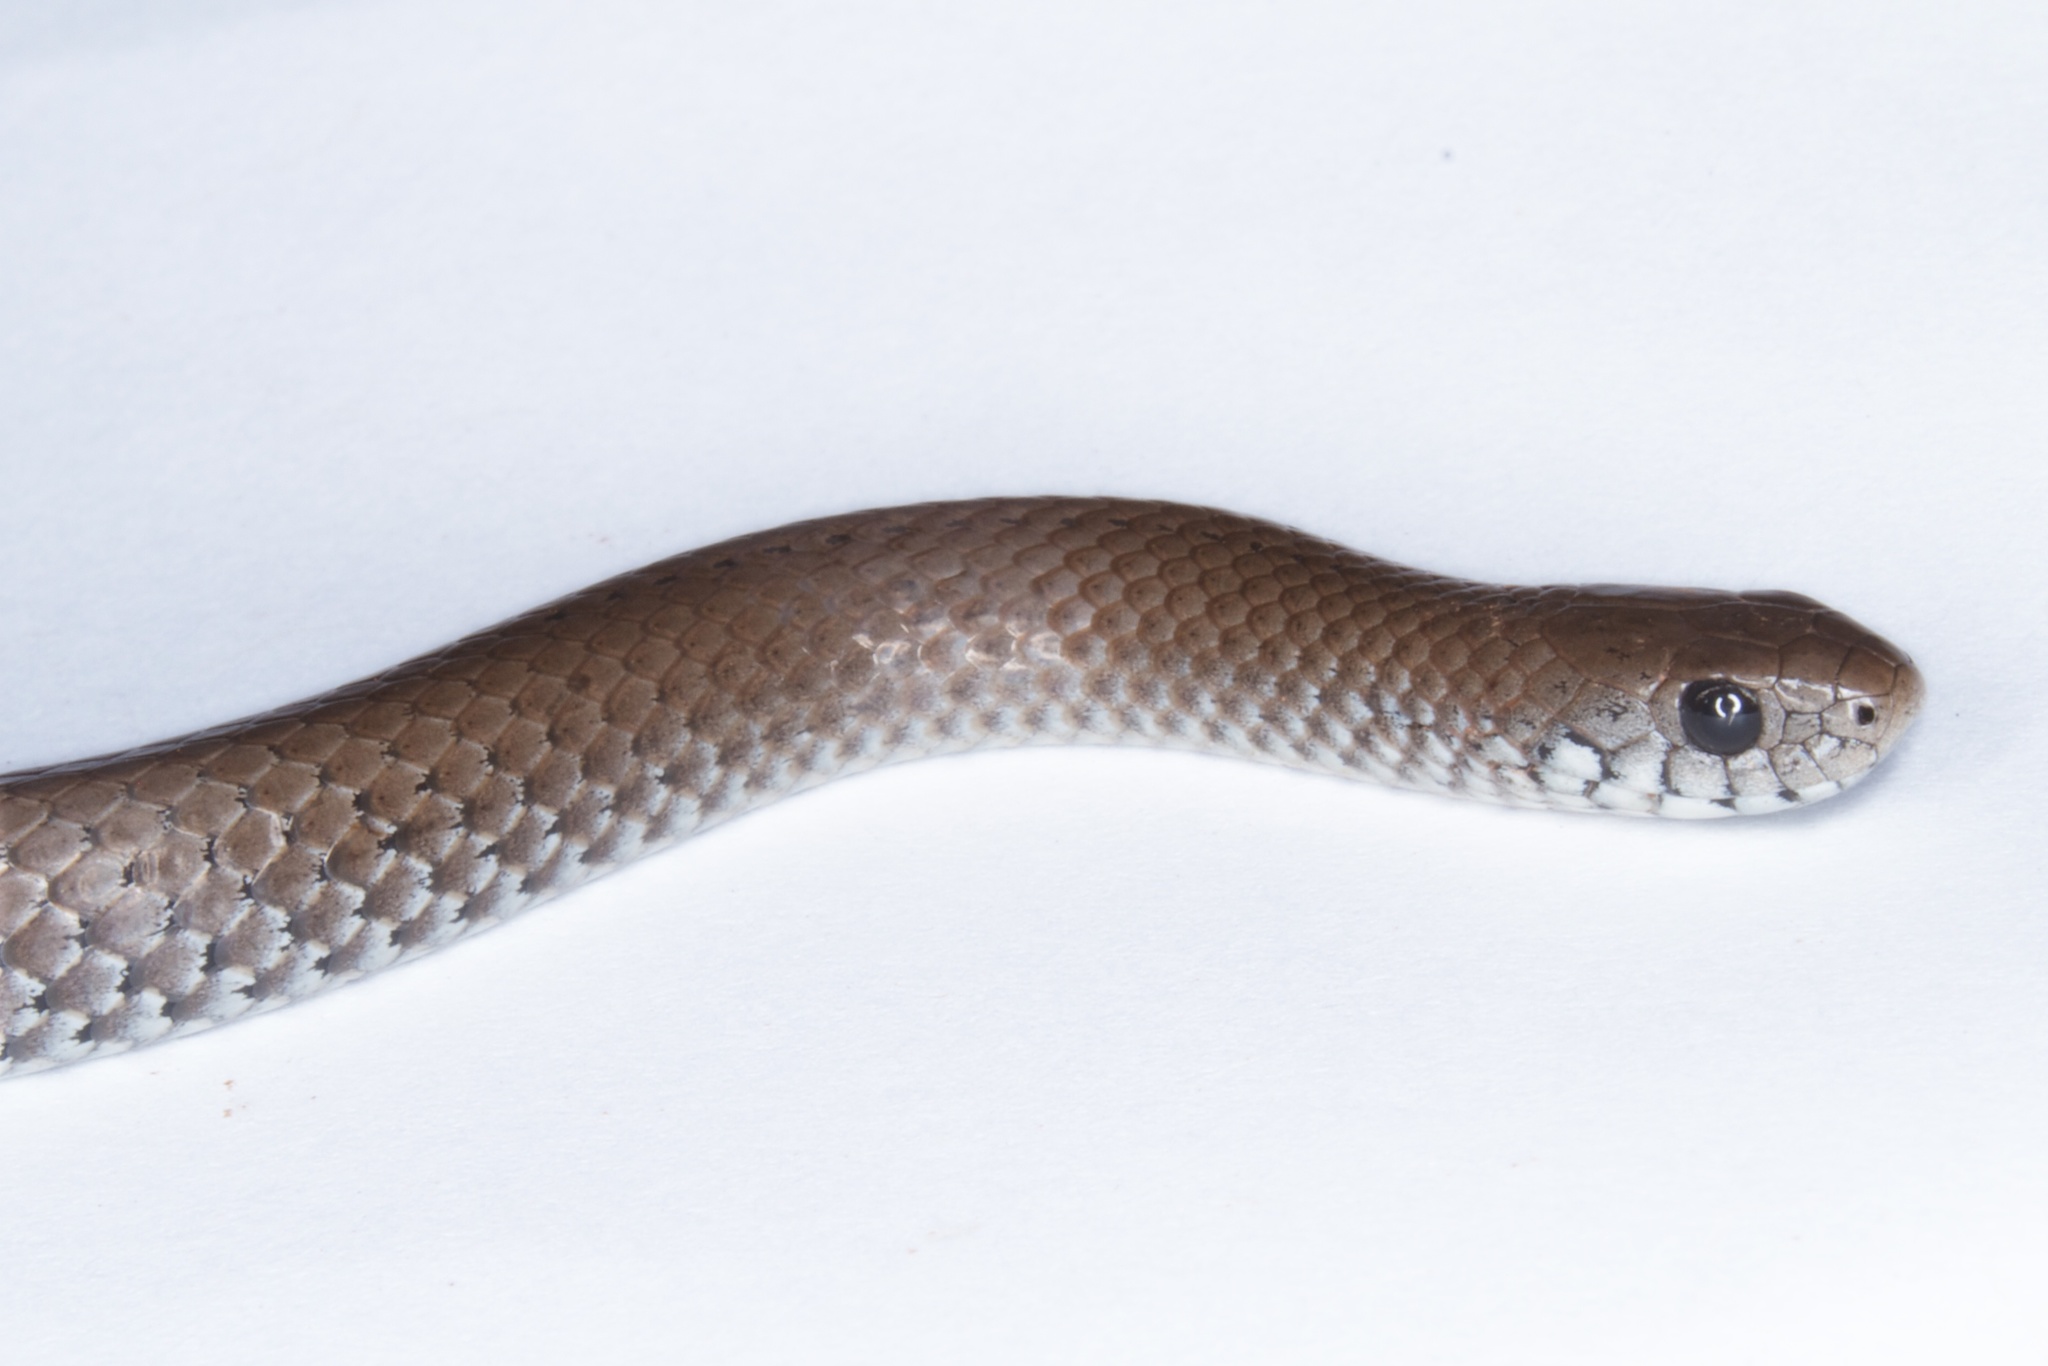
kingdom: Animalia
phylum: Chordata
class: Squamata
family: Pseudoxyrhophiidae
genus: Duberria
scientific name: Duberria rhodesiana
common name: Zimbabwean slug eater
